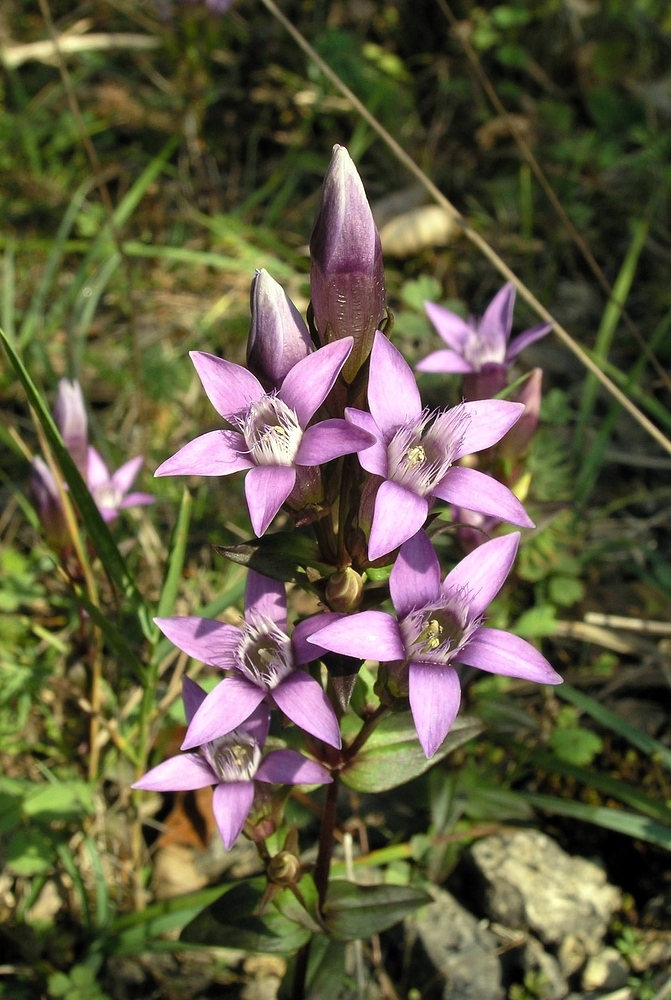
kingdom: Plantae
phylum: Tracheophyta
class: Magnoliopsida
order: Gentianales
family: Gentianaceae
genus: Gentianella
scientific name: Gentianella germanica
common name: Chiltern-gentian
